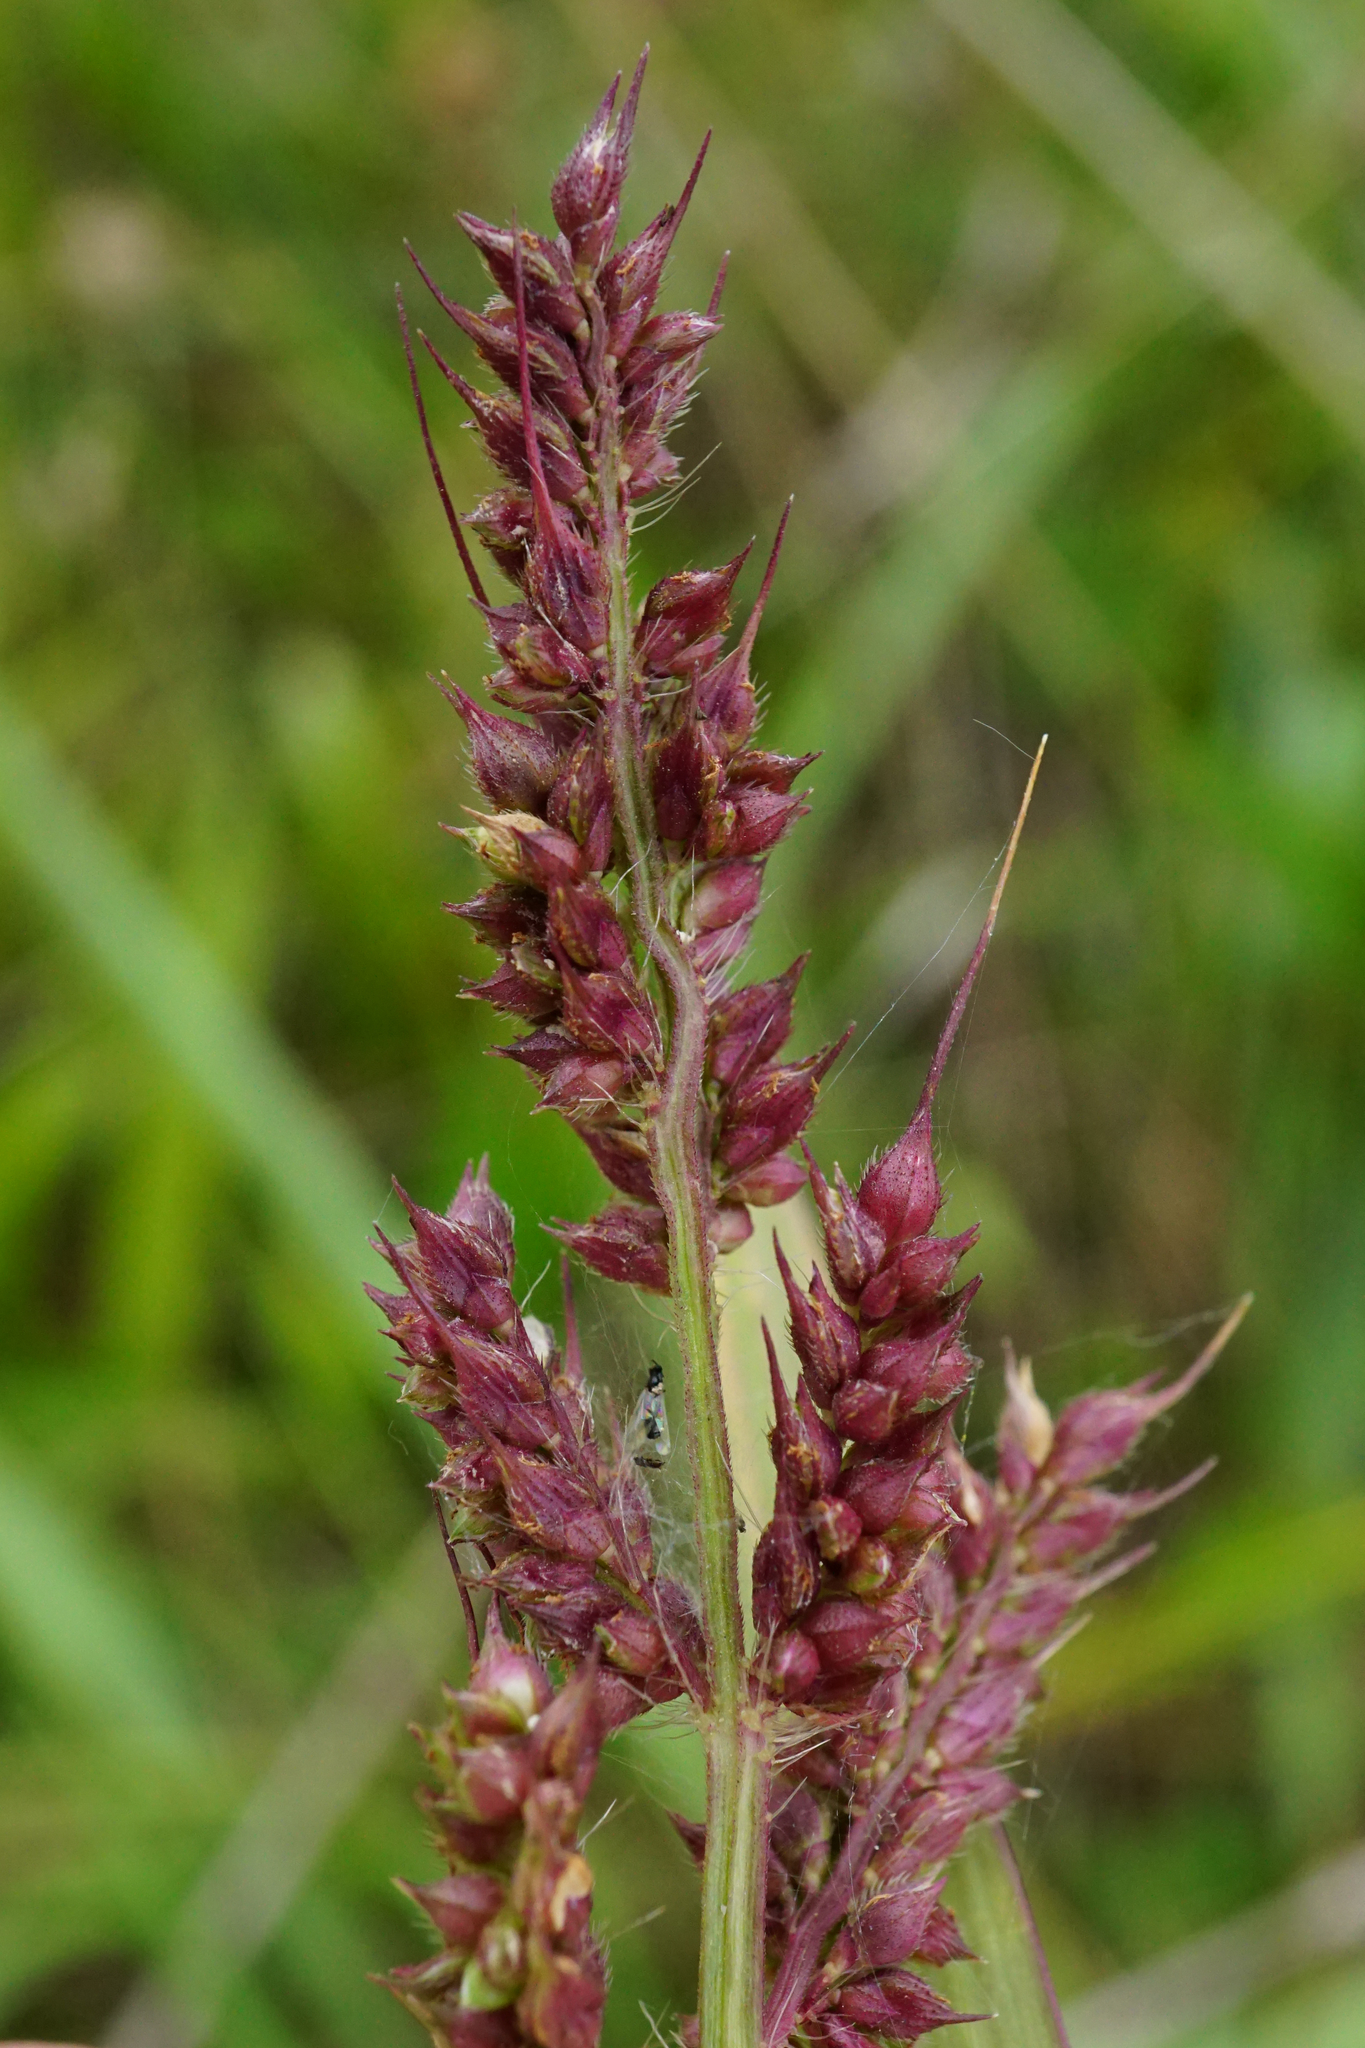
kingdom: Plantae
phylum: Tracheophyta
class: Liliopsida
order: Poales
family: Poaceae
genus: Echinochloa
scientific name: Echinochloa crus-galli
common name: Cockspur
